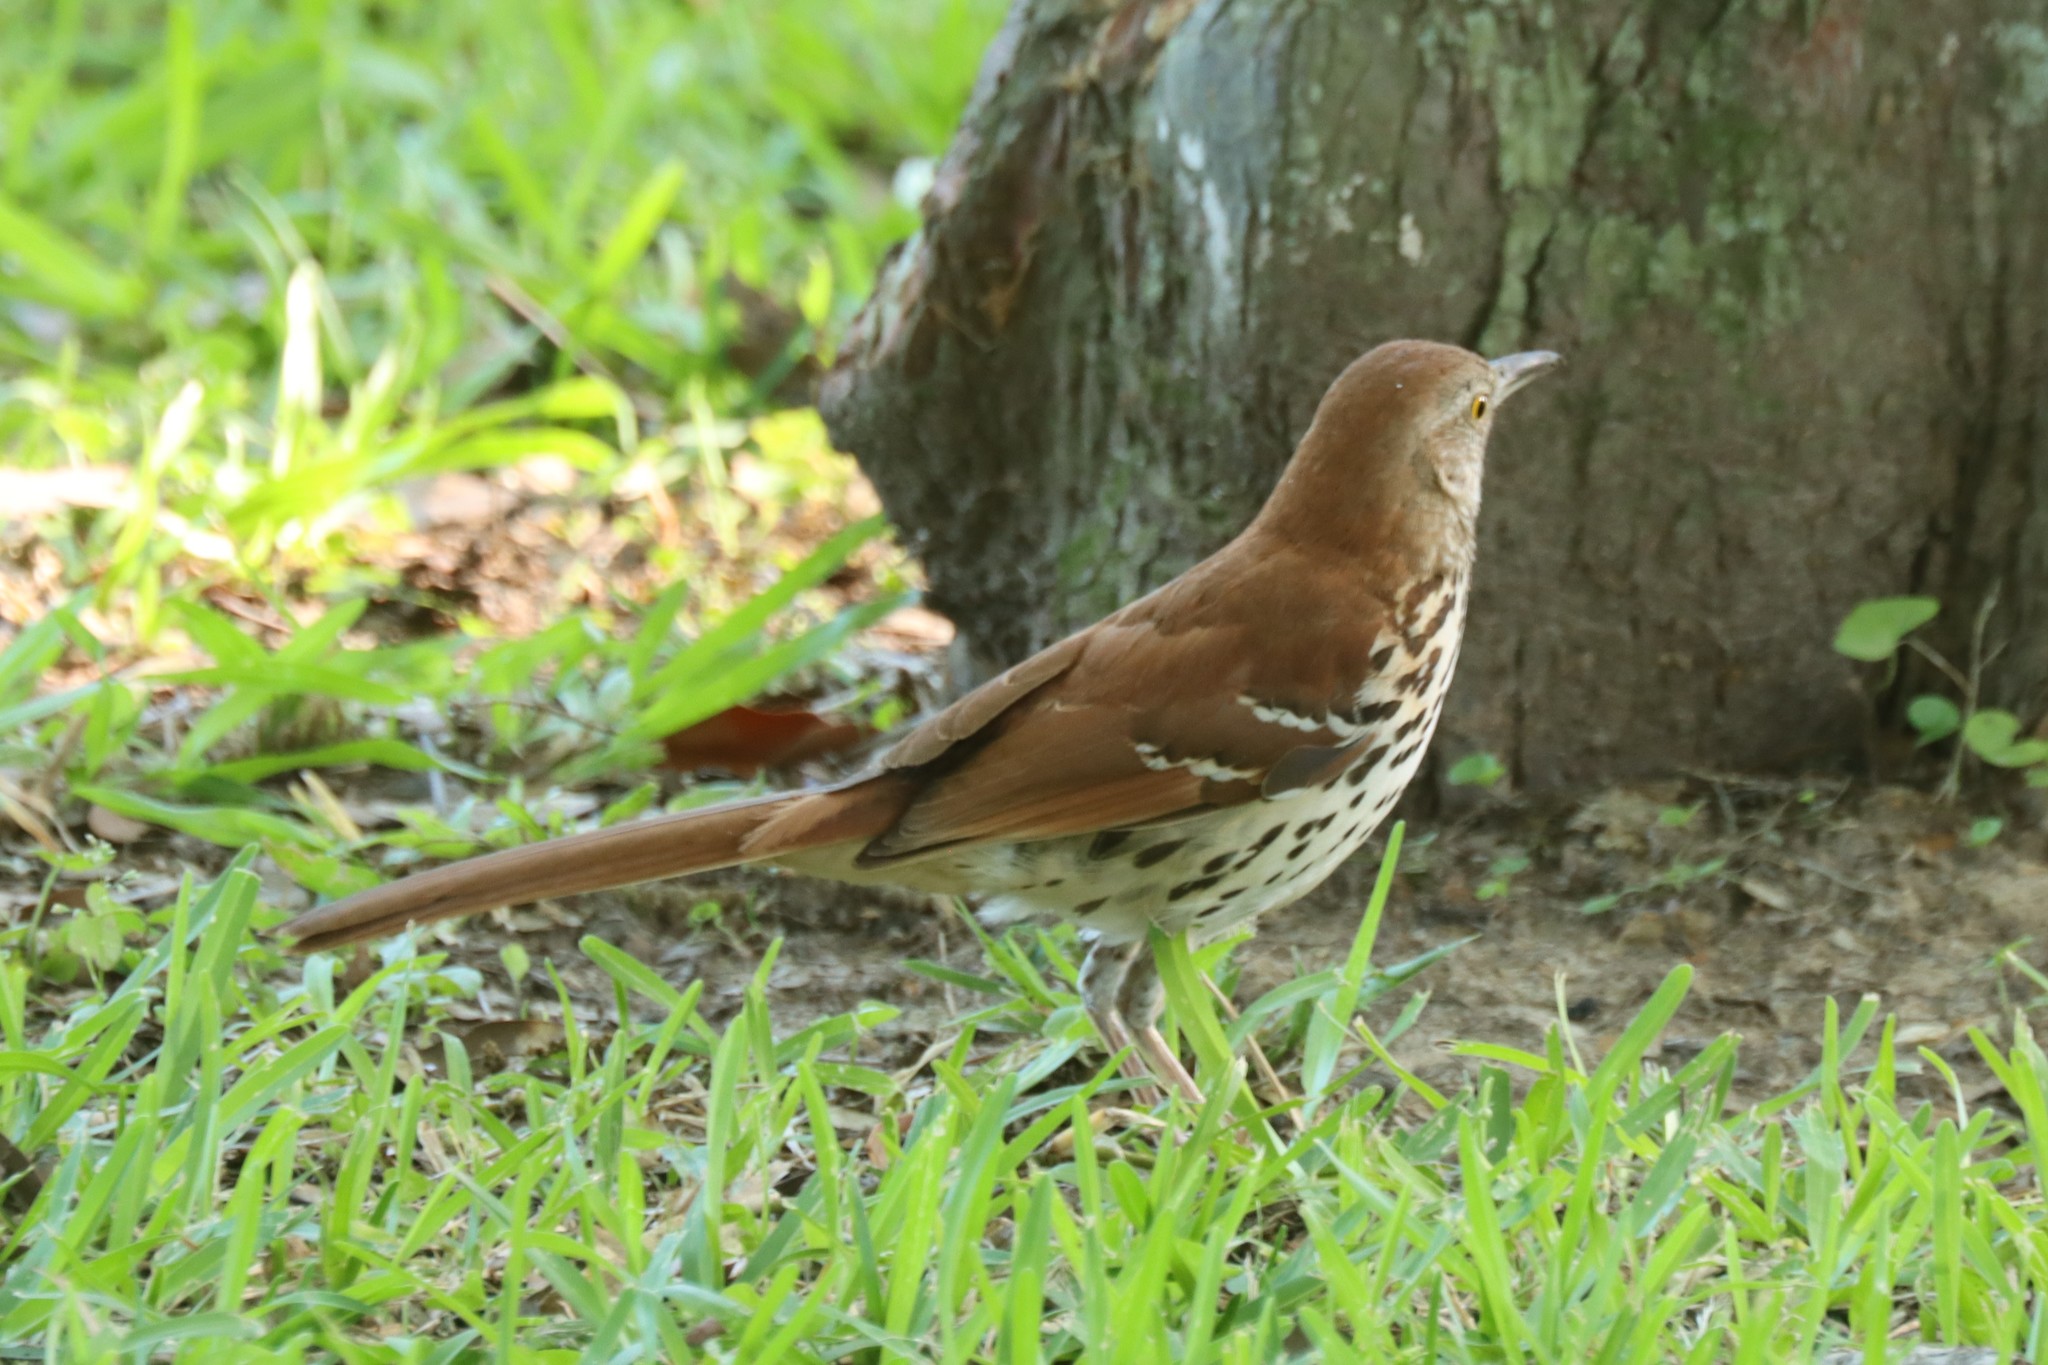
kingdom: Animalia
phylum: Chordata
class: Aves
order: Passeriformes
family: Mimidae
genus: Toxostoma
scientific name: Toxostoma rufum
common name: Brown thrasher
